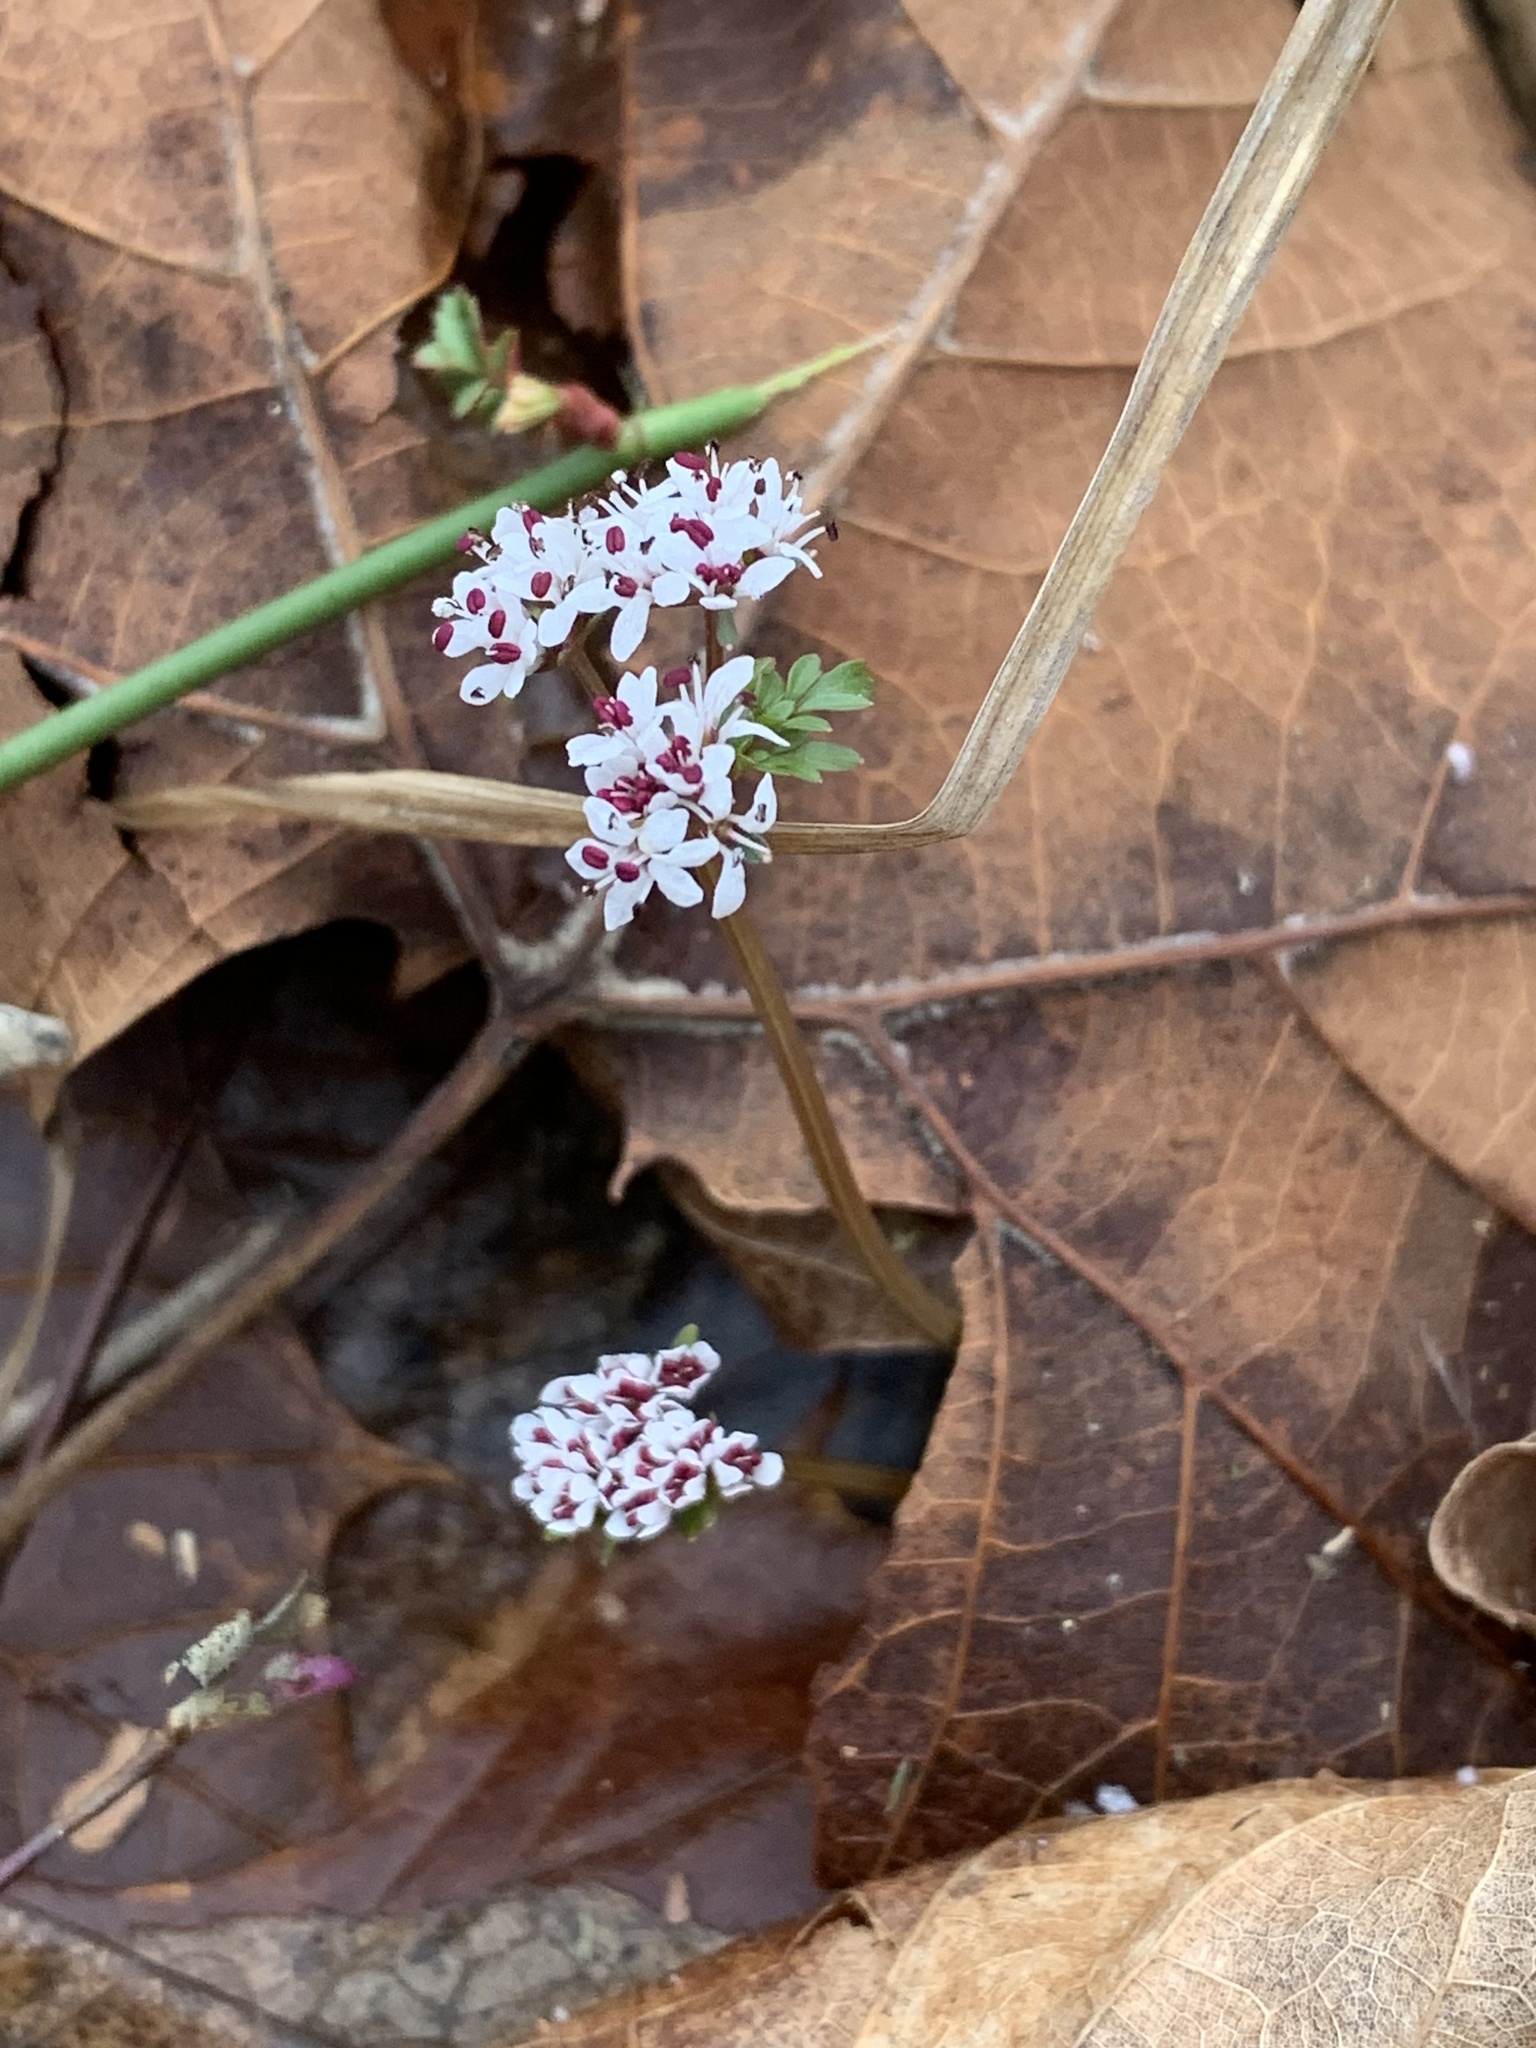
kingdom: Plantae
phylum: Tracheophyta
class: Magnoliopsida
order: Apiales
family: Apiaceae
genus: Erigenia
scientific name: Erigenia bulbosa
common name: Pepper-and-salt
